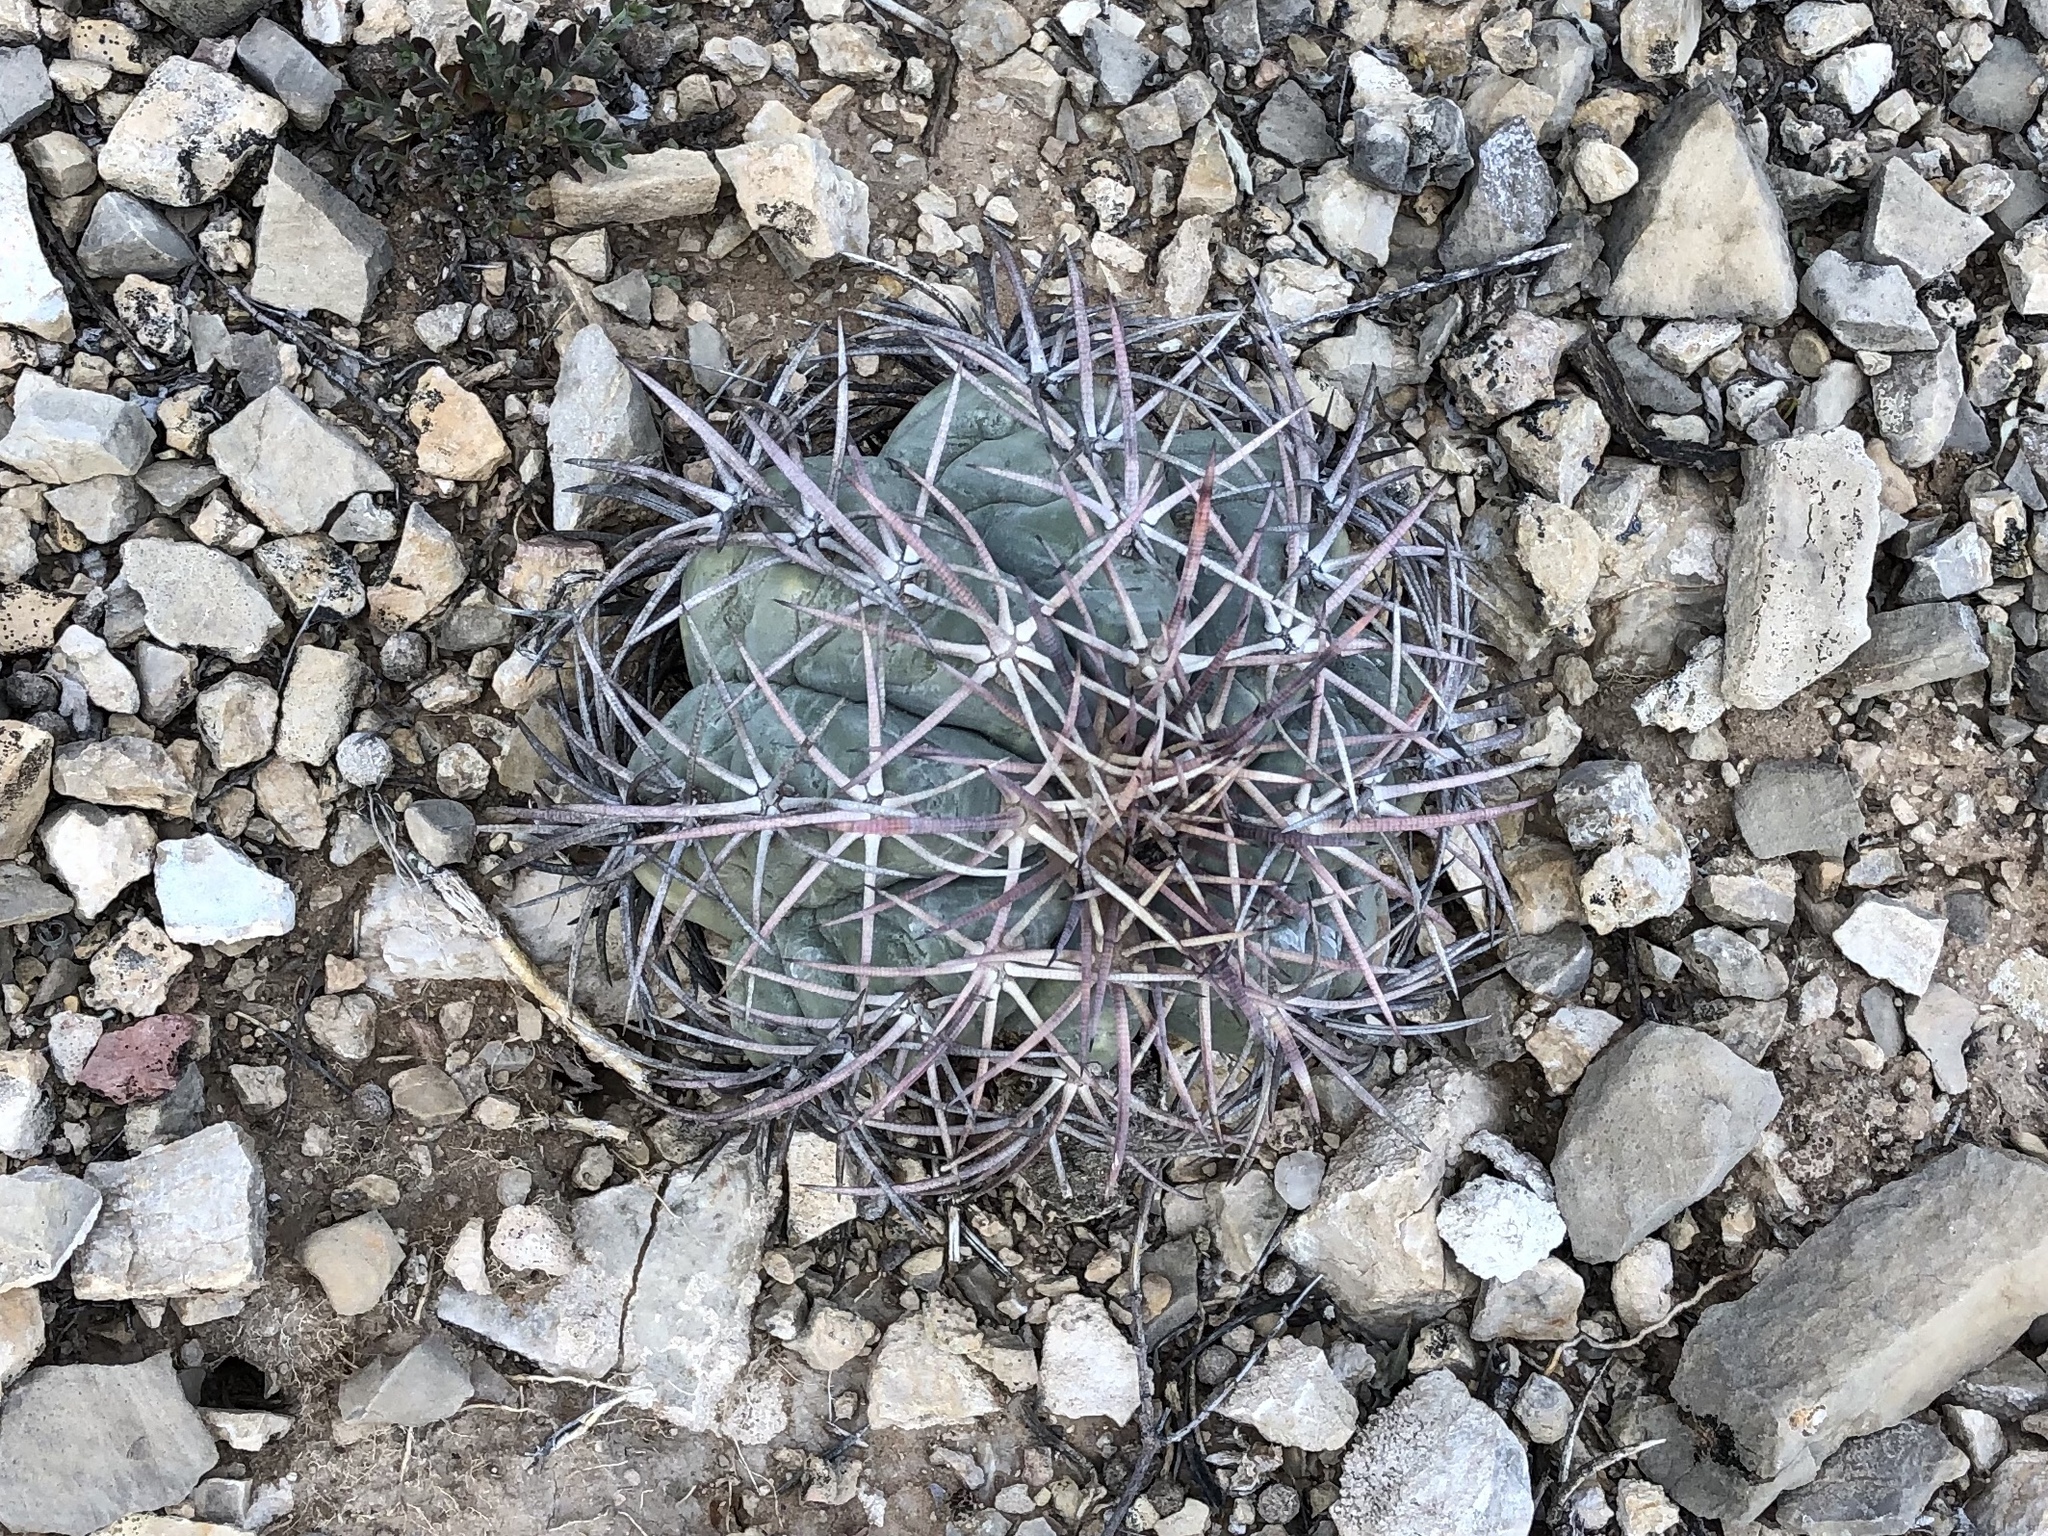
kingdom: Plantae
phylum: Tracheophyta
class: Magnoliopsida
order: Caryophyllales
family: Cactaceae
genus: Echinocactus
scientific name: Echinocactus horizonthalonius
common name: Devilshead
